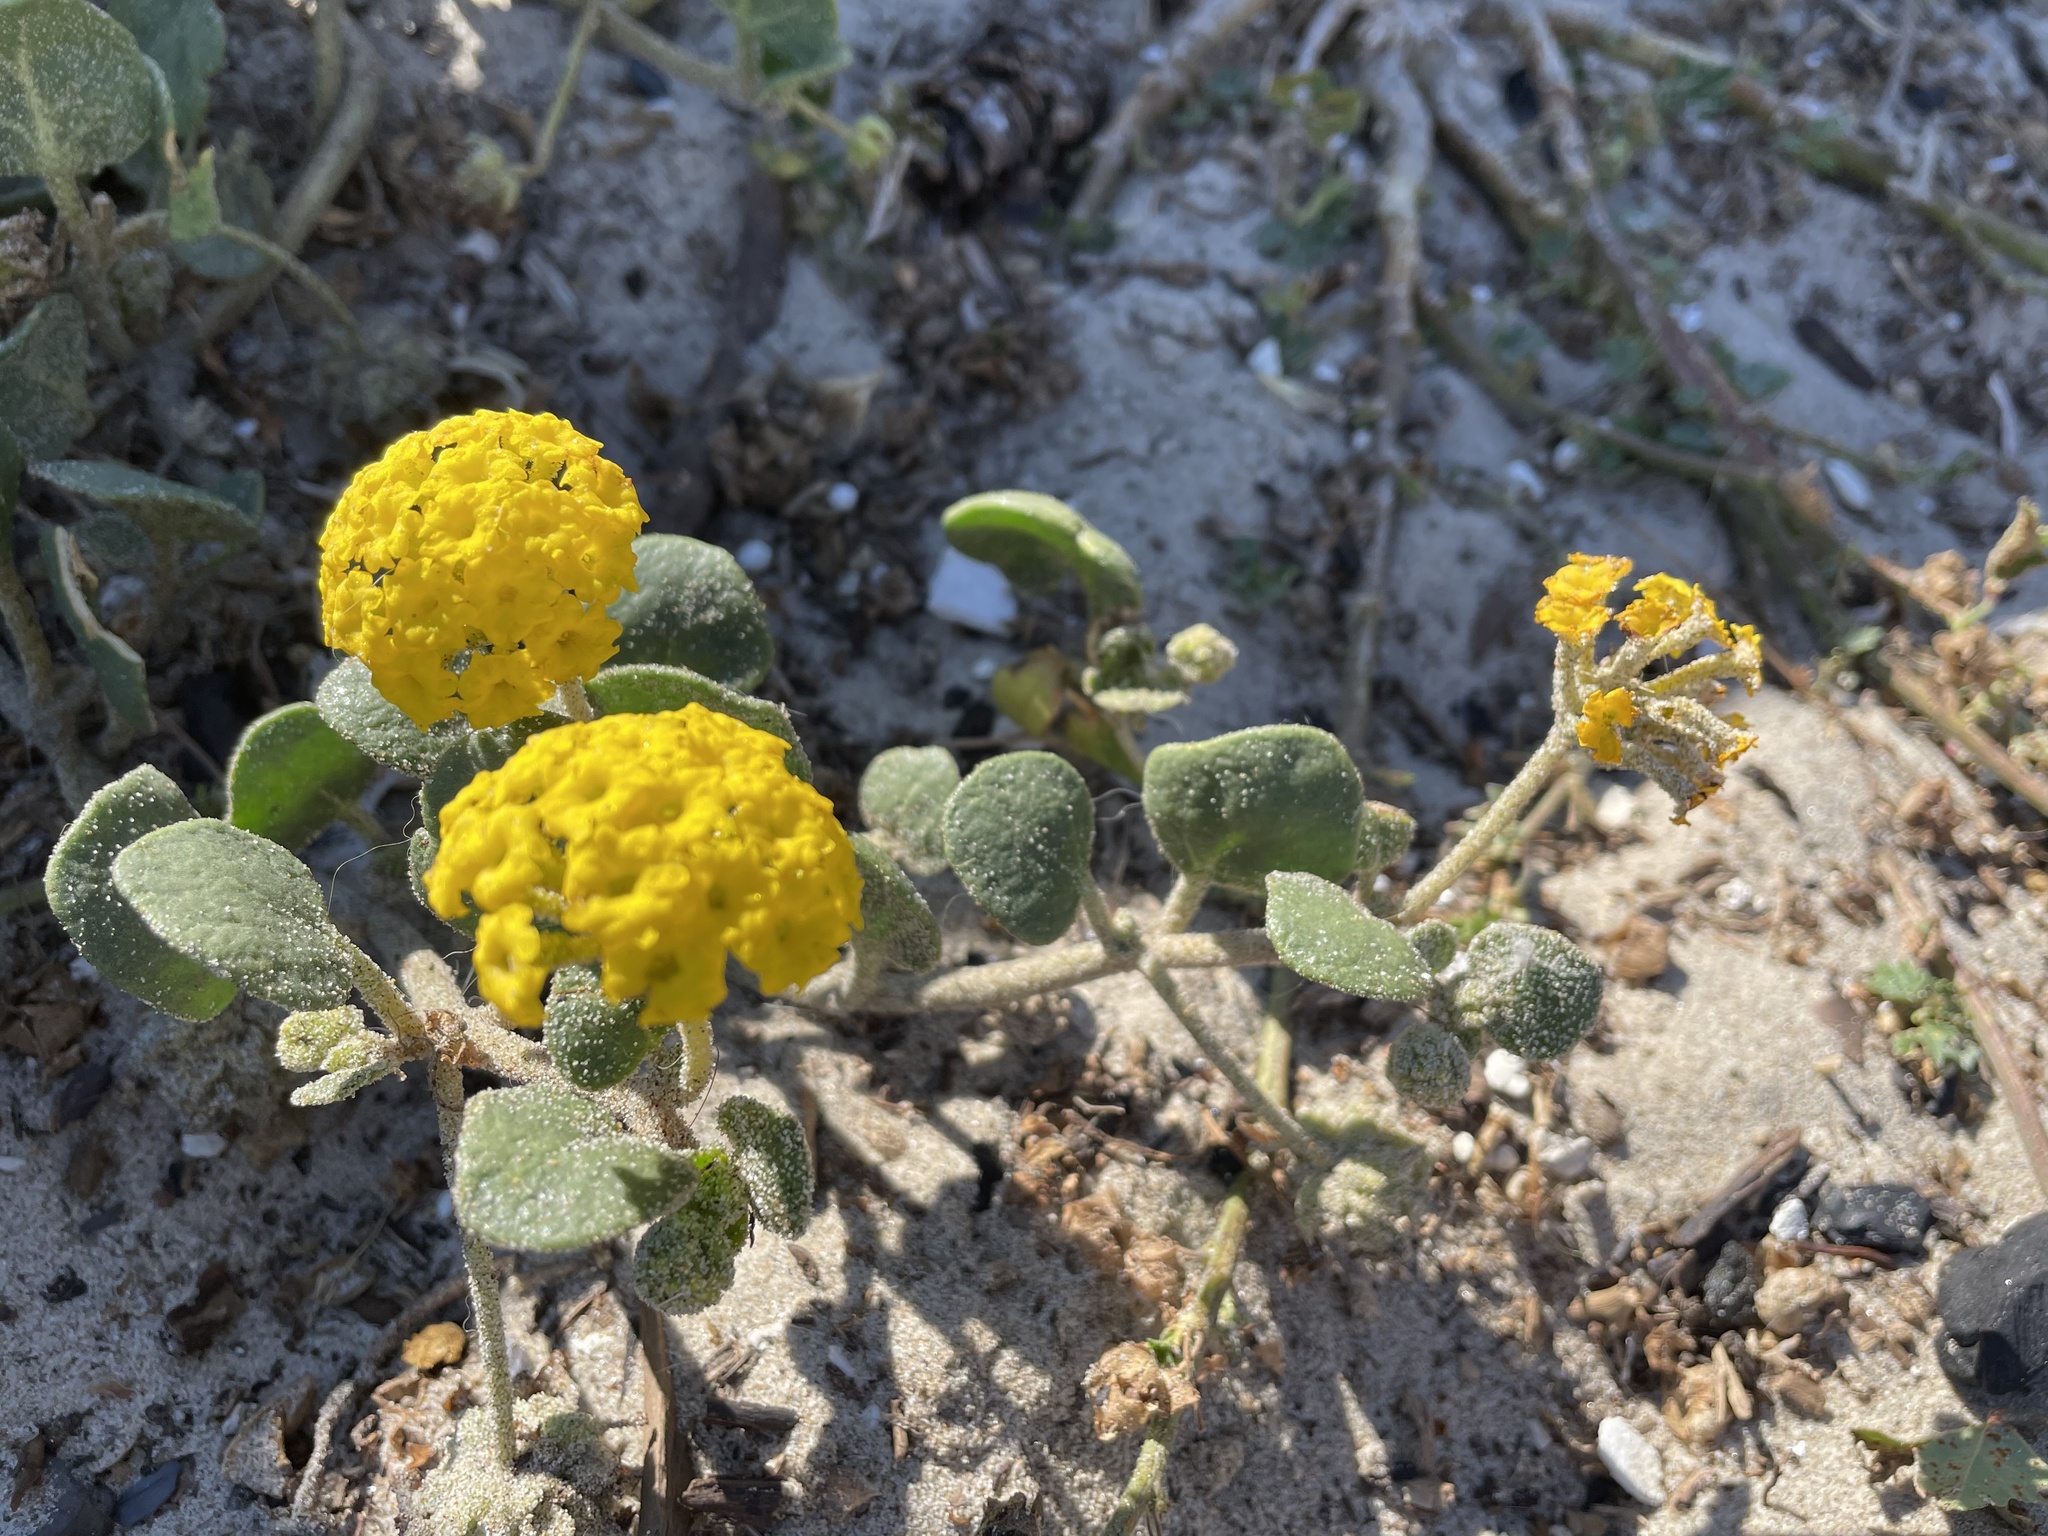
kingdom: Plantae
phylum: Tracheophyta
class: Magnoliopsida
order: Caryophyllales
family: Nyctaginaceae
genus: Abronia
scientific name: Abronia latifolia
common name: Yellow sand-verbena
